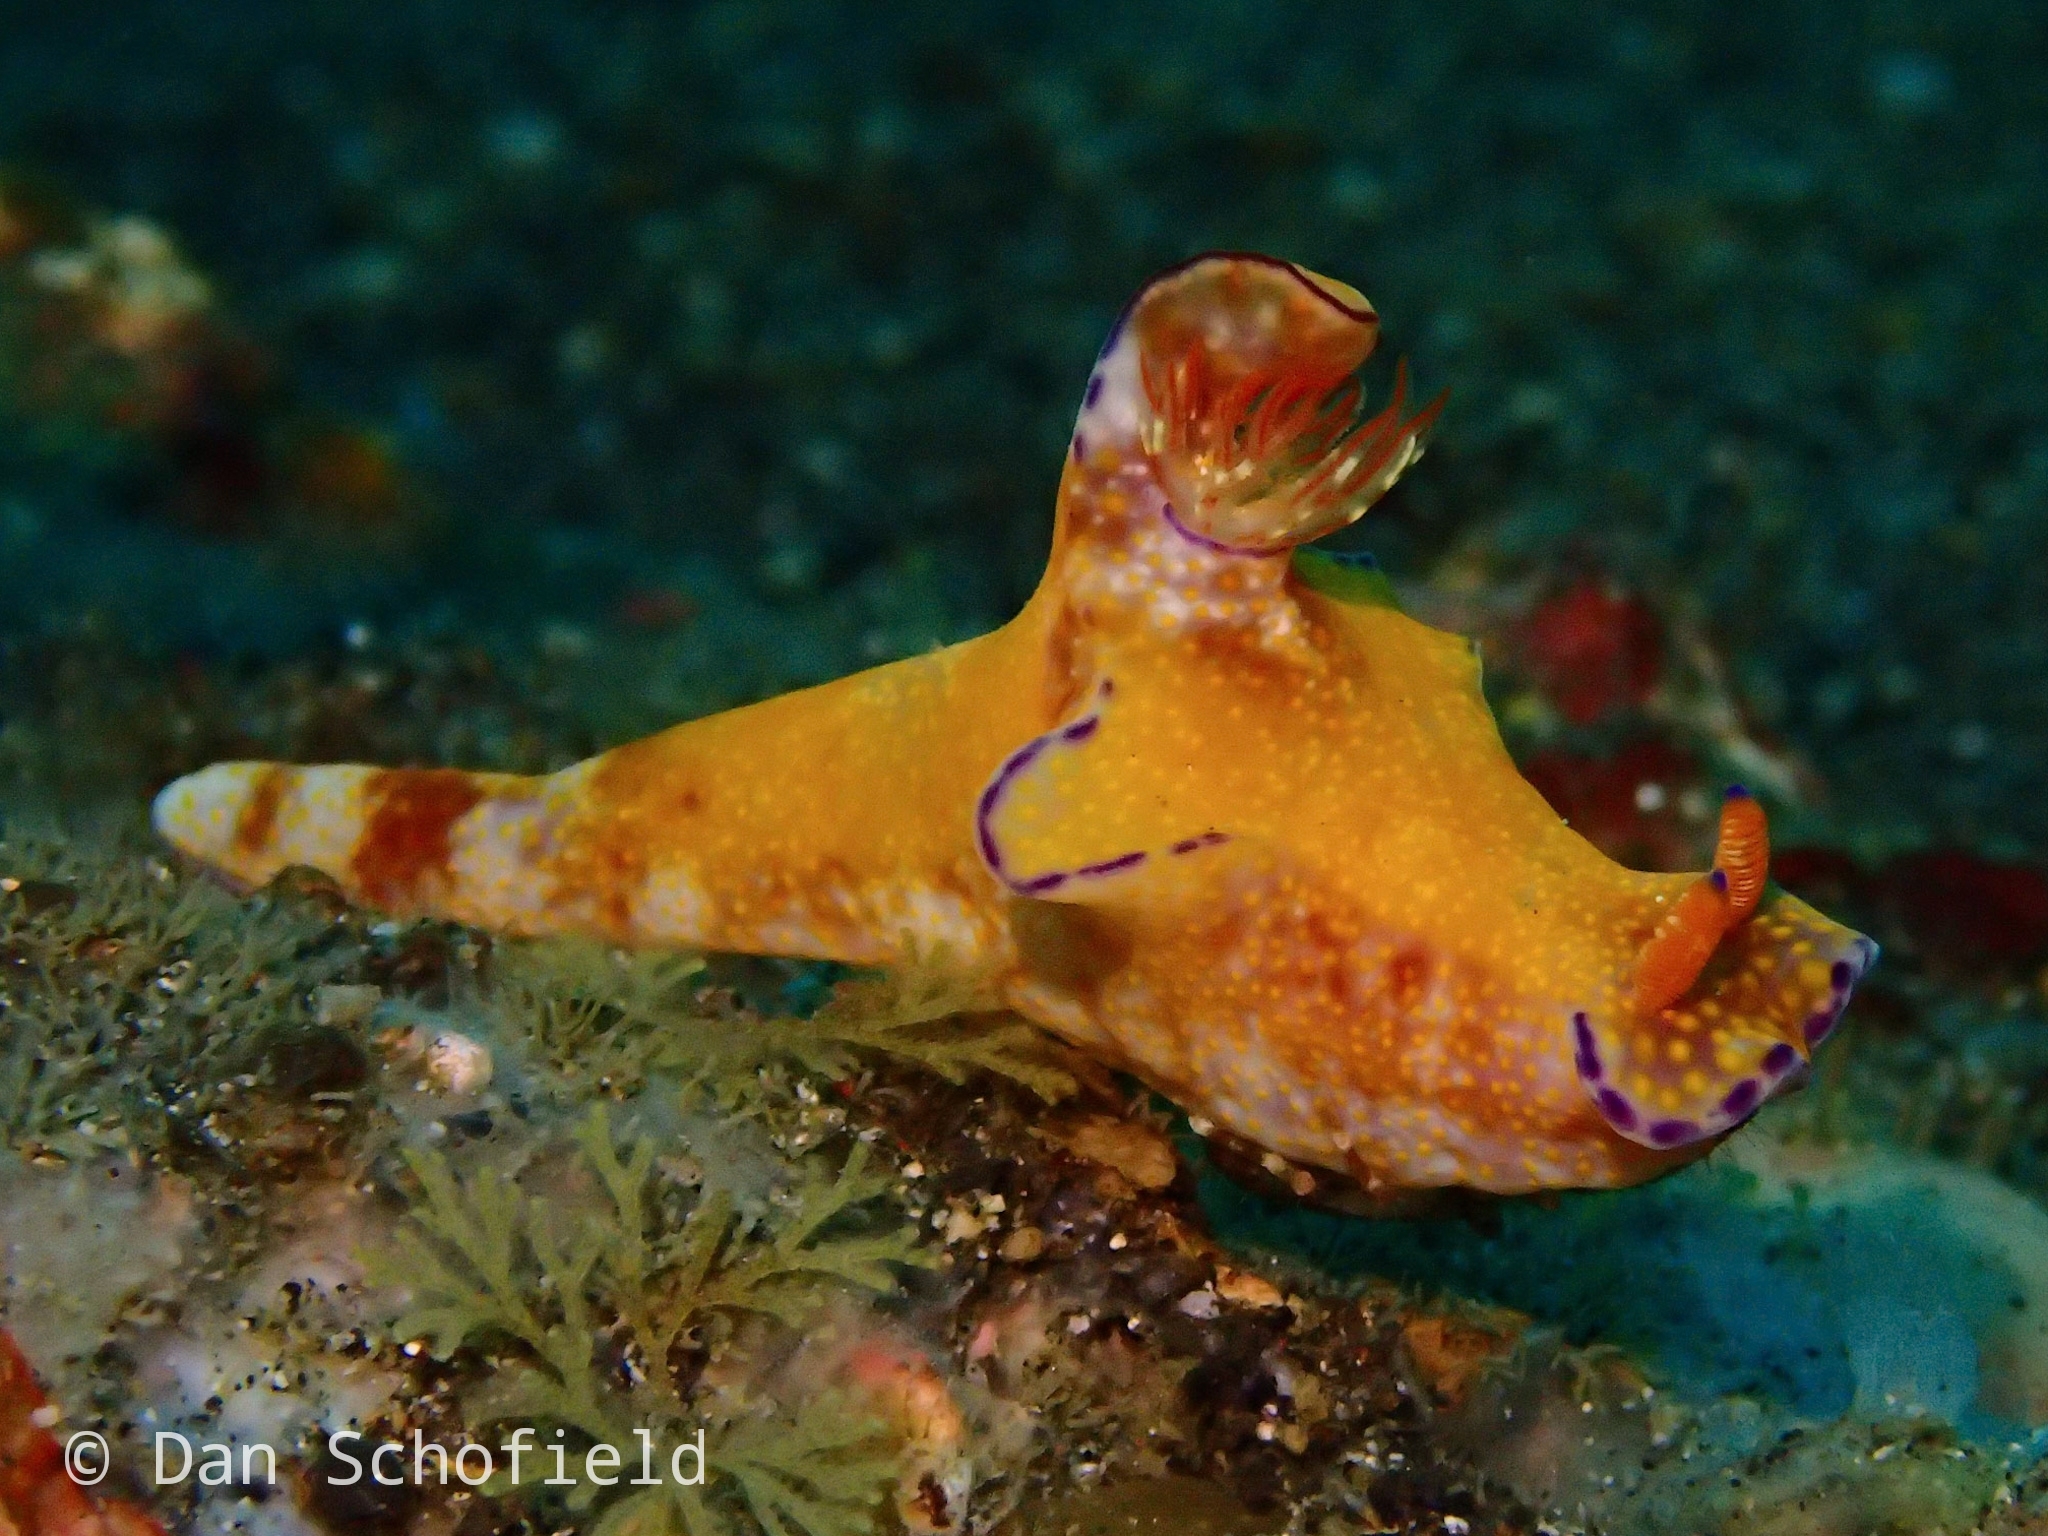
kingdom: Animalia
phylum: Mollusca
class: Gastropoda
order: Nudibranchia
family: Chromodorididae
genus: Ceratosoma
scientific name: Ceratosoma gracillimum
